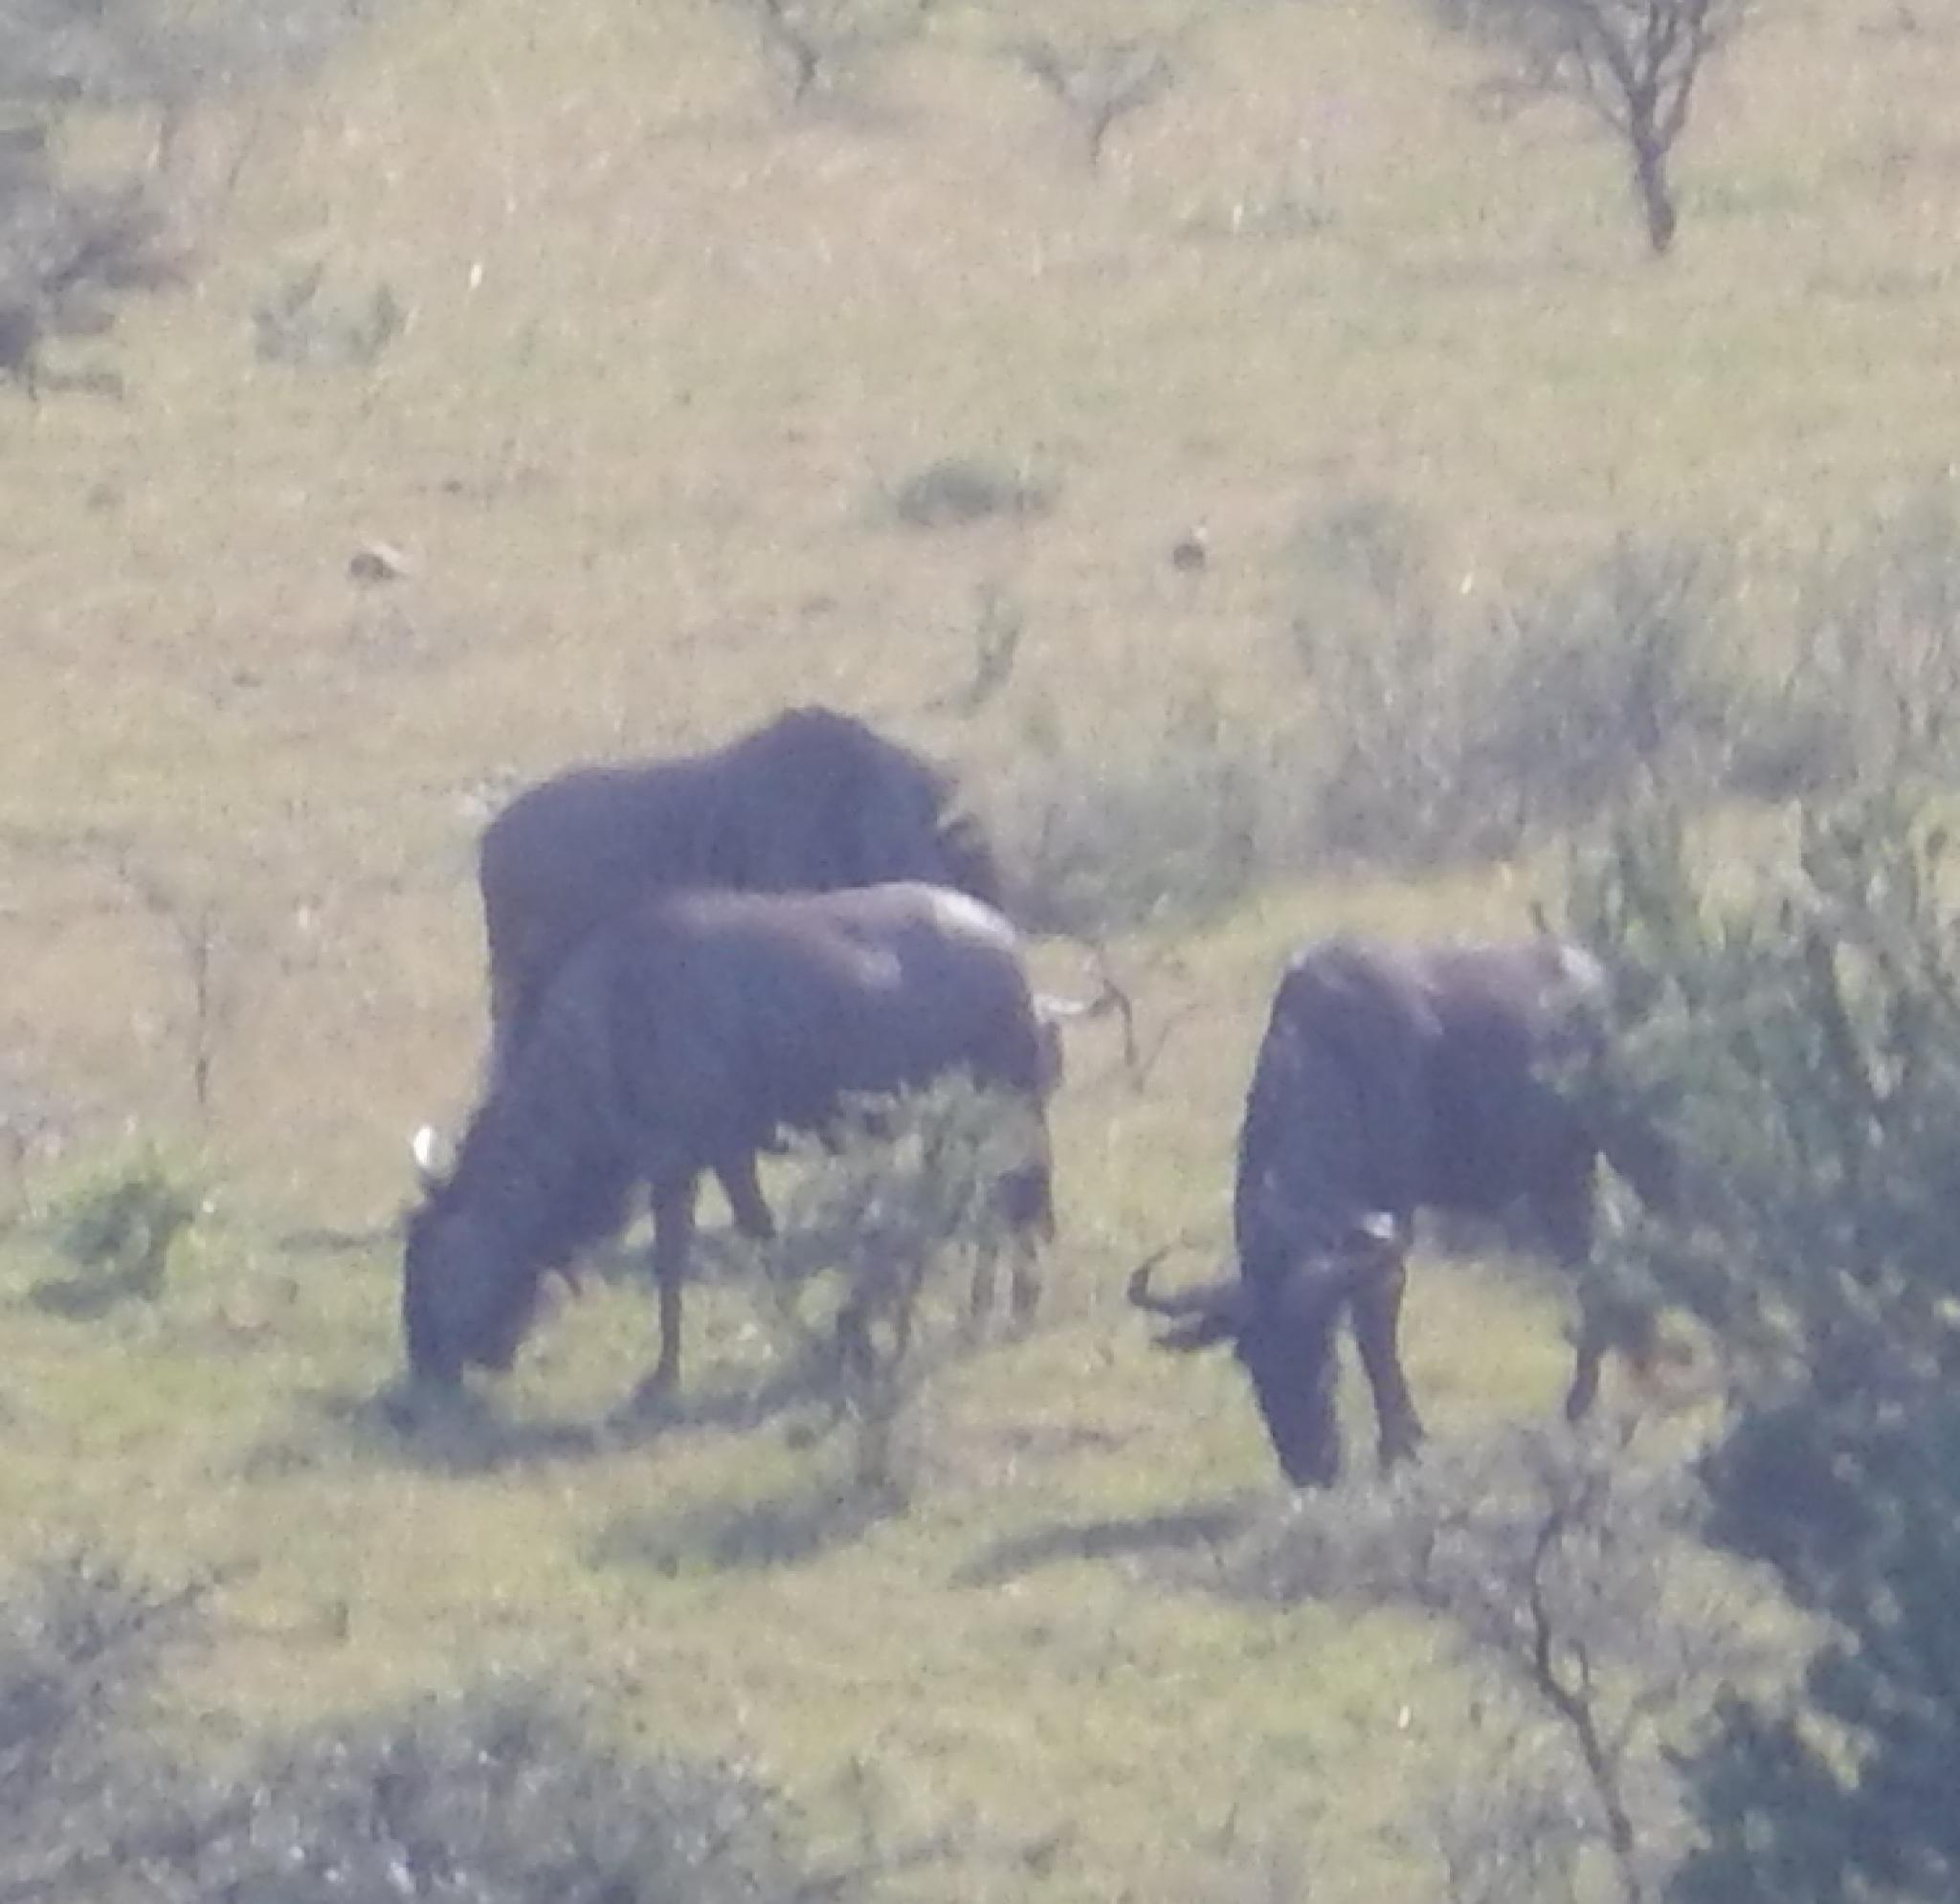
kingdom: Animalia
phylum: Chordata
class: Mammalia
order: Artiodactyla
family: Bovidae
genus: Connochaetes
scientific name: Connochaetes taurinus
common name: Blue wildebeest
